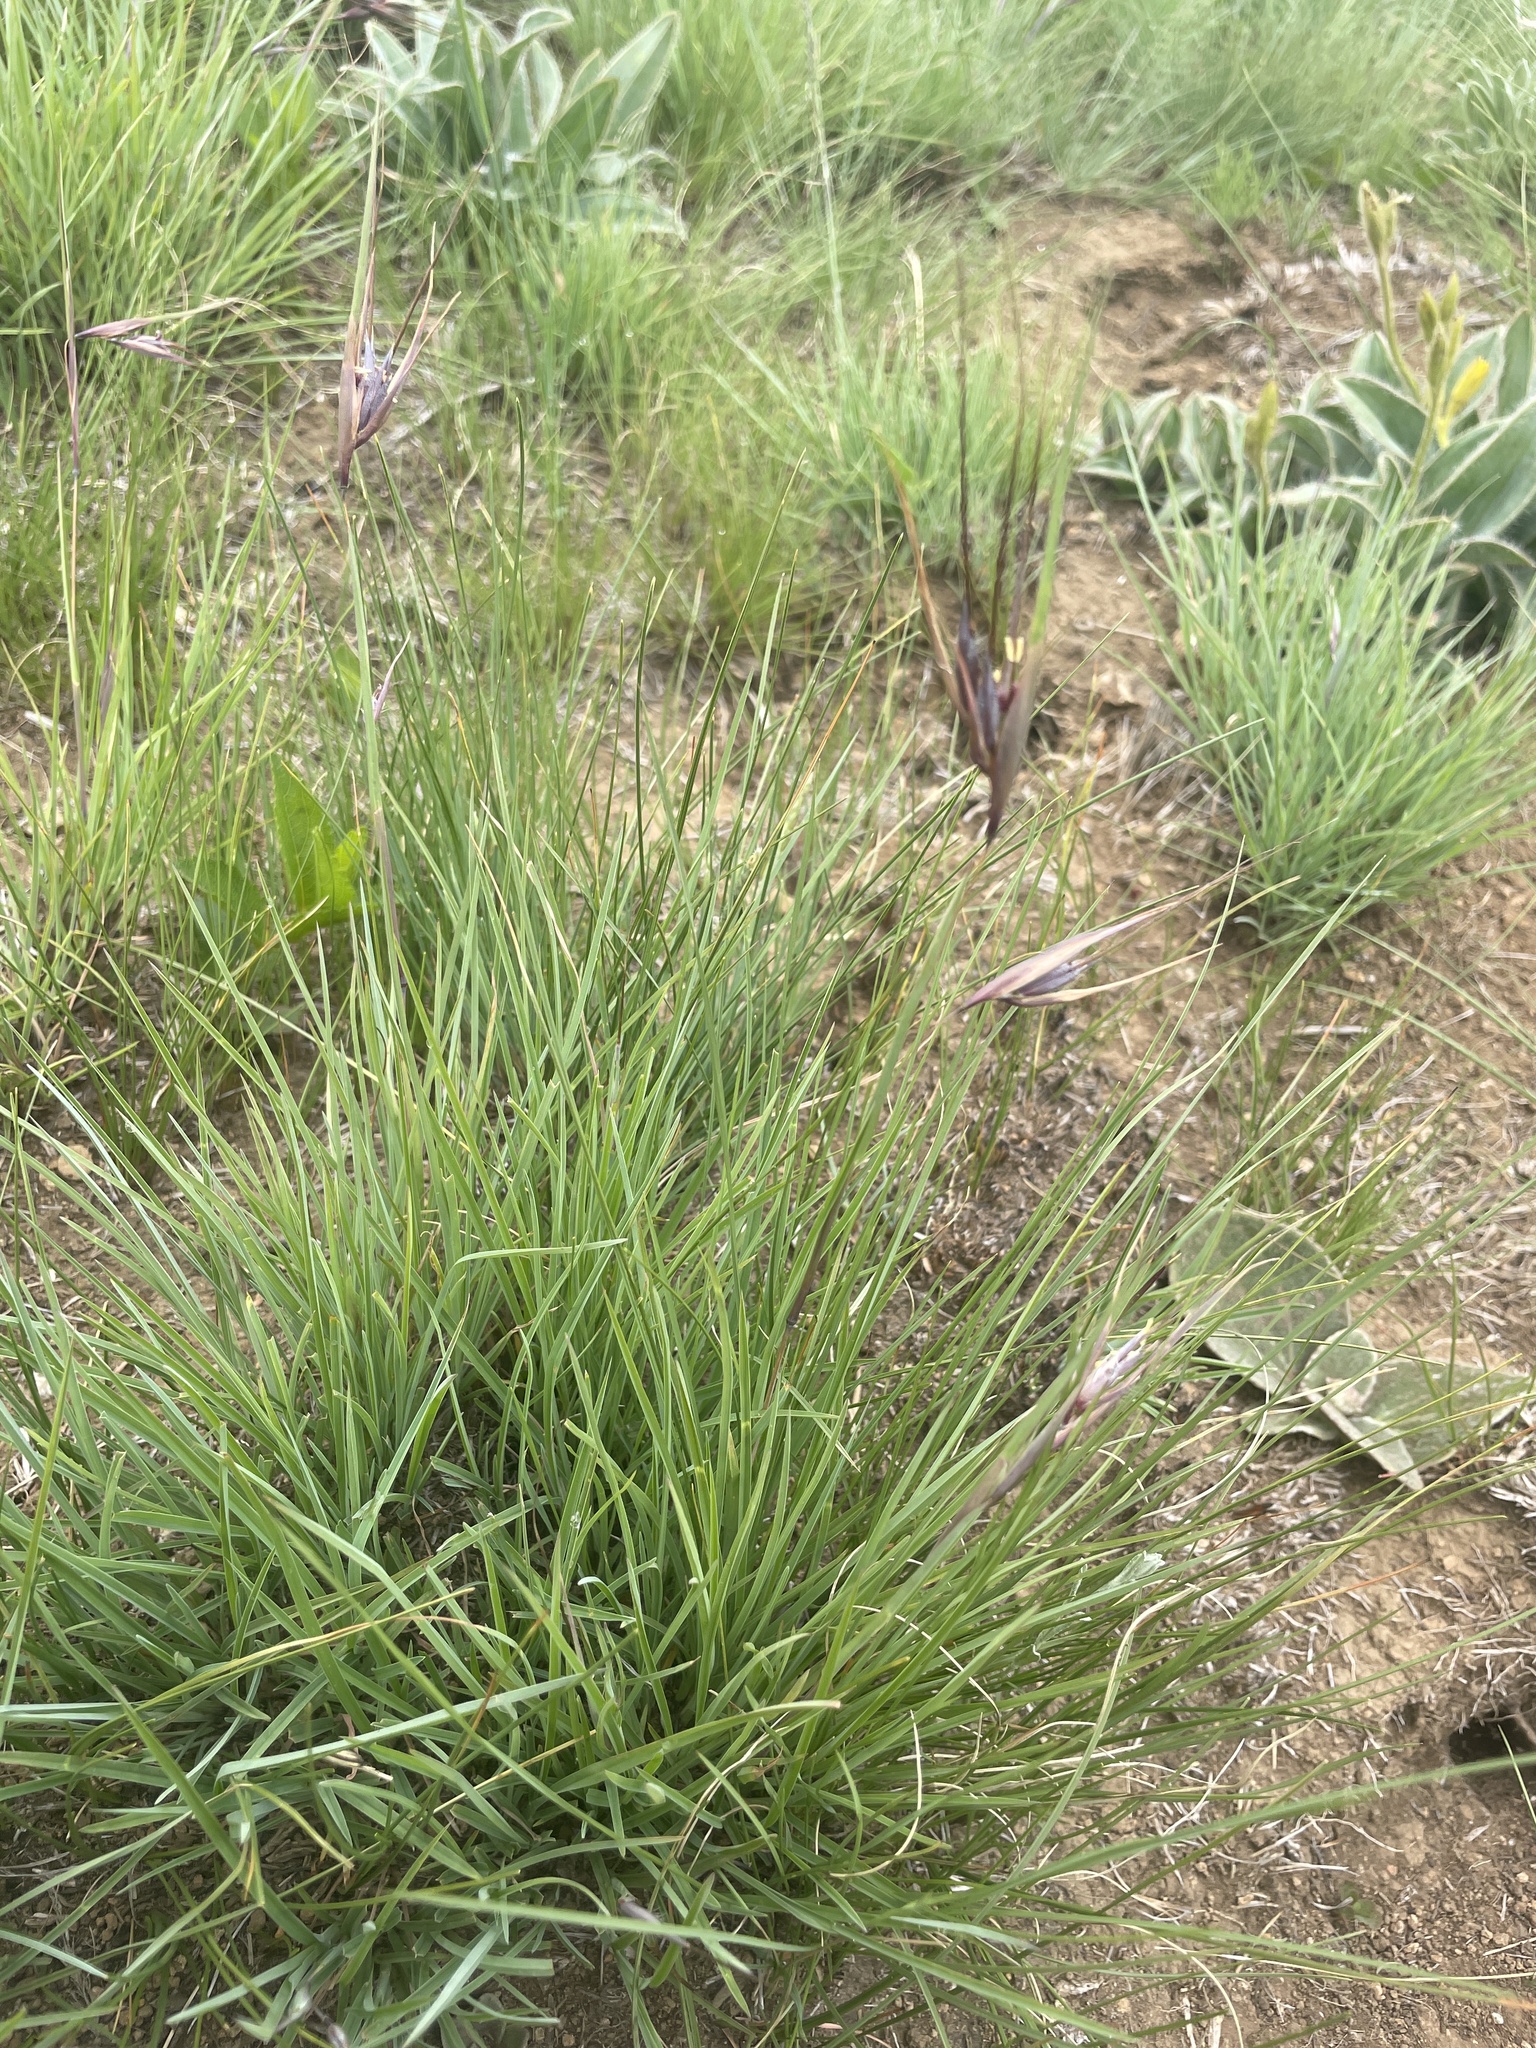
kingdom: Plantae
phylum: Tracheophyta
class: Liliopsida
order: Poales
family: Poaceae
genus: Themeda
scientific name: Themeda triandra
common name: Kangaroo grass
